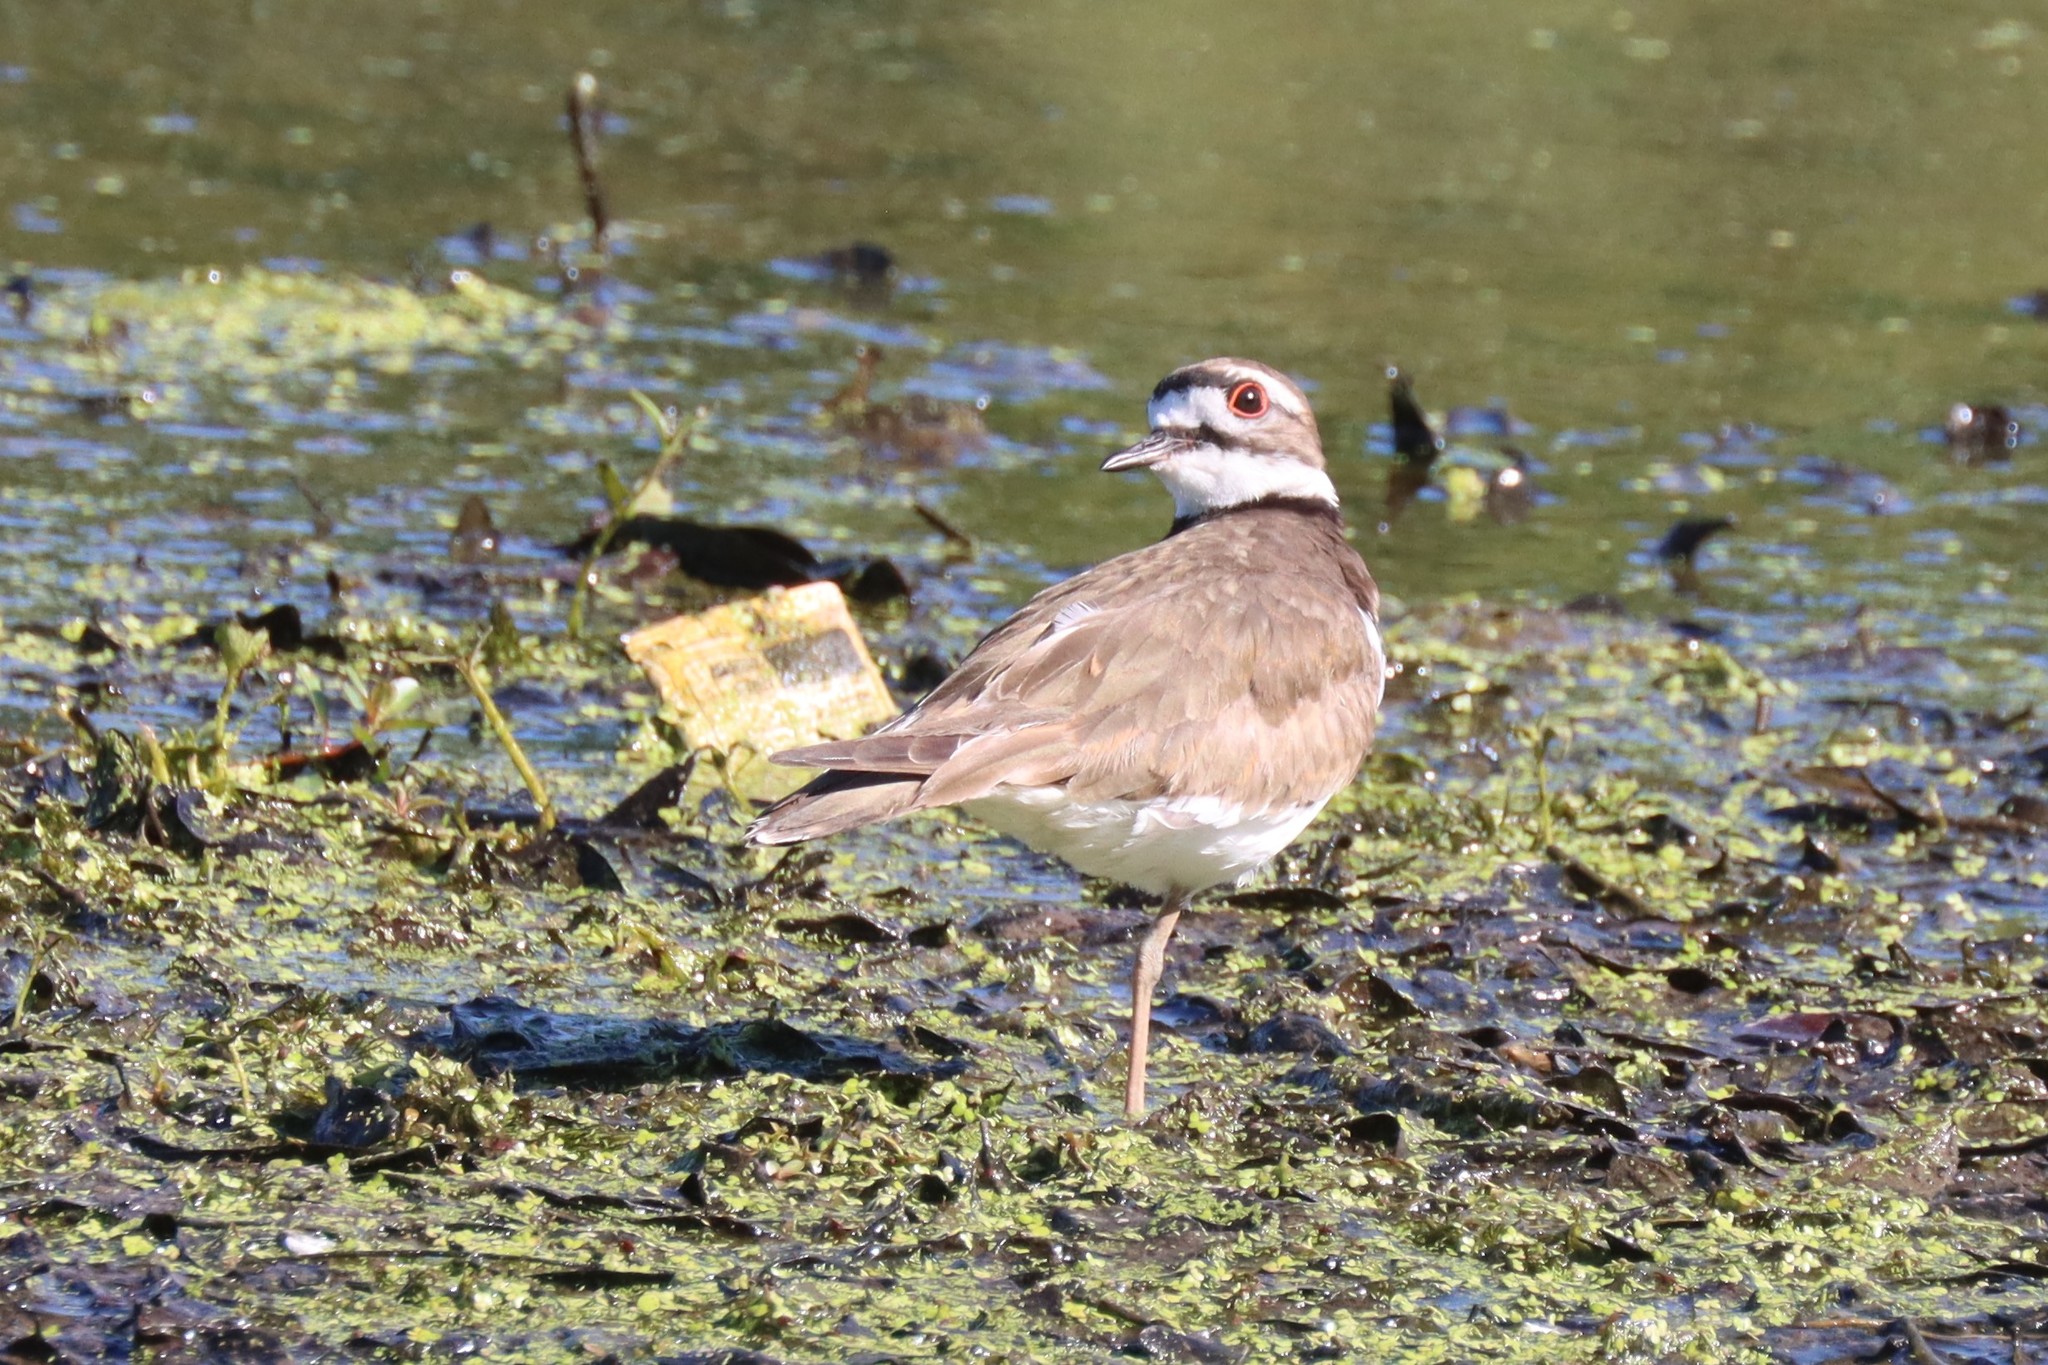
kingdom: Animalia
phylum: Chordata
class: Aves
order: Charadriiformes
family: Charadriidae
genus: Charadrius
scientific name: Charadrius vociferus
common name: Killdeer
